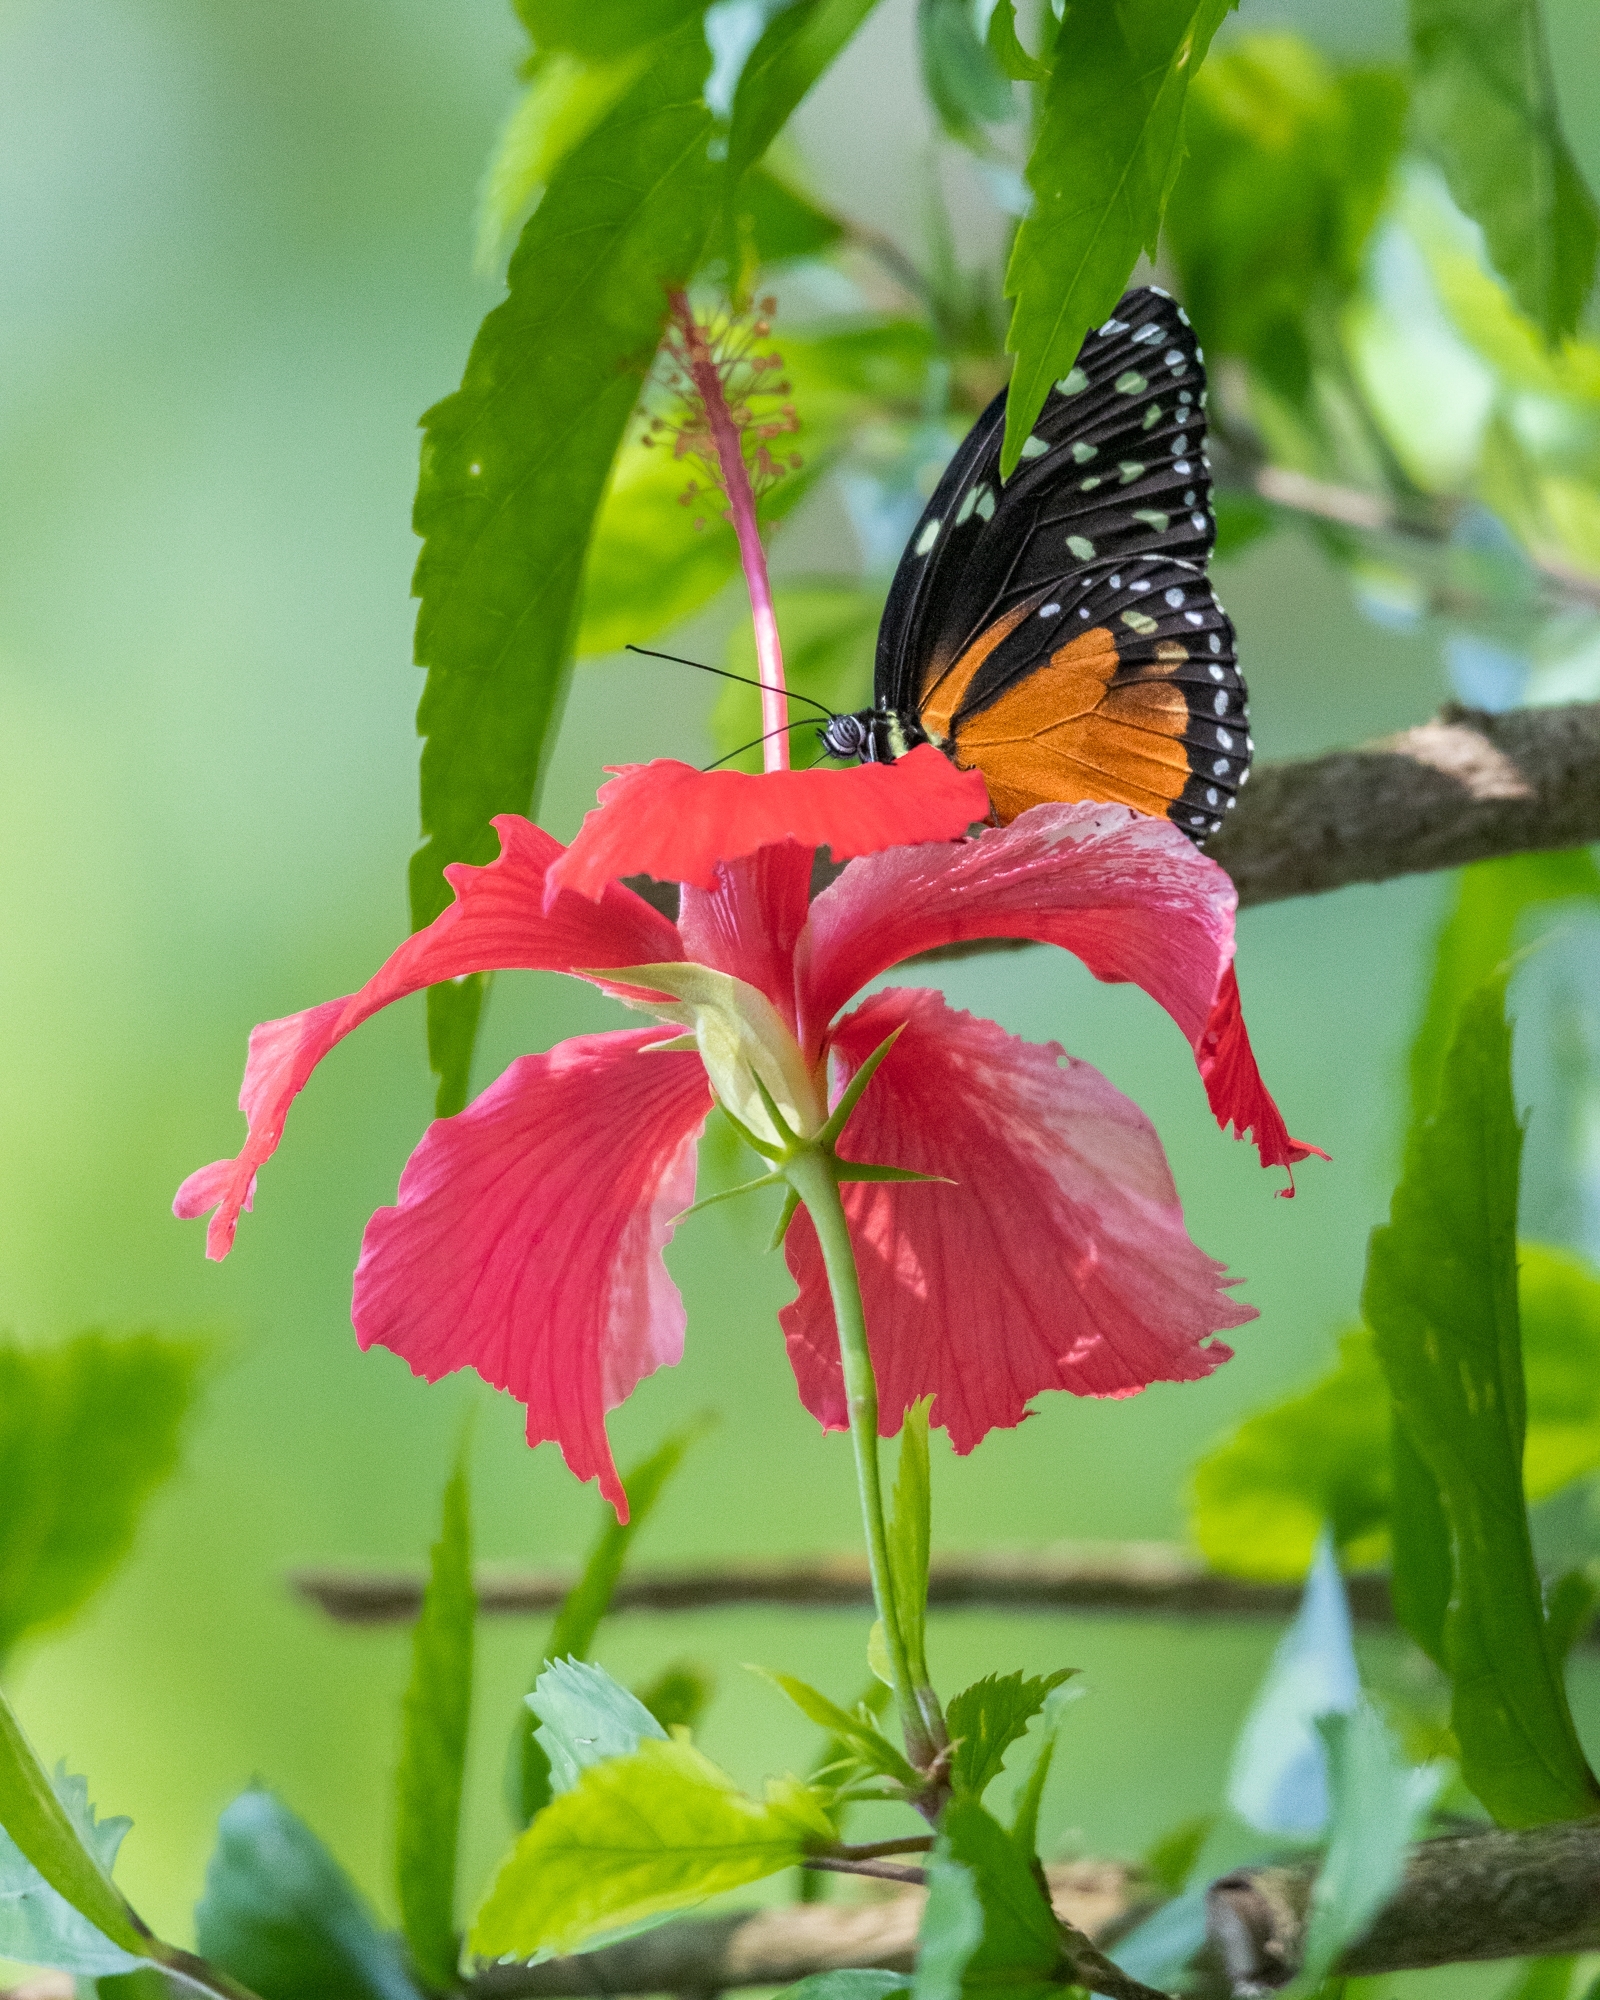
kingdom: Animalia
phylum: Arthropoda
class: Insecta
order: Lepidoptera
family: Nymphalidae
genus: Tithorea
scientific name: Tithorea tarricina
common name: Cream-spotted tigerwing
